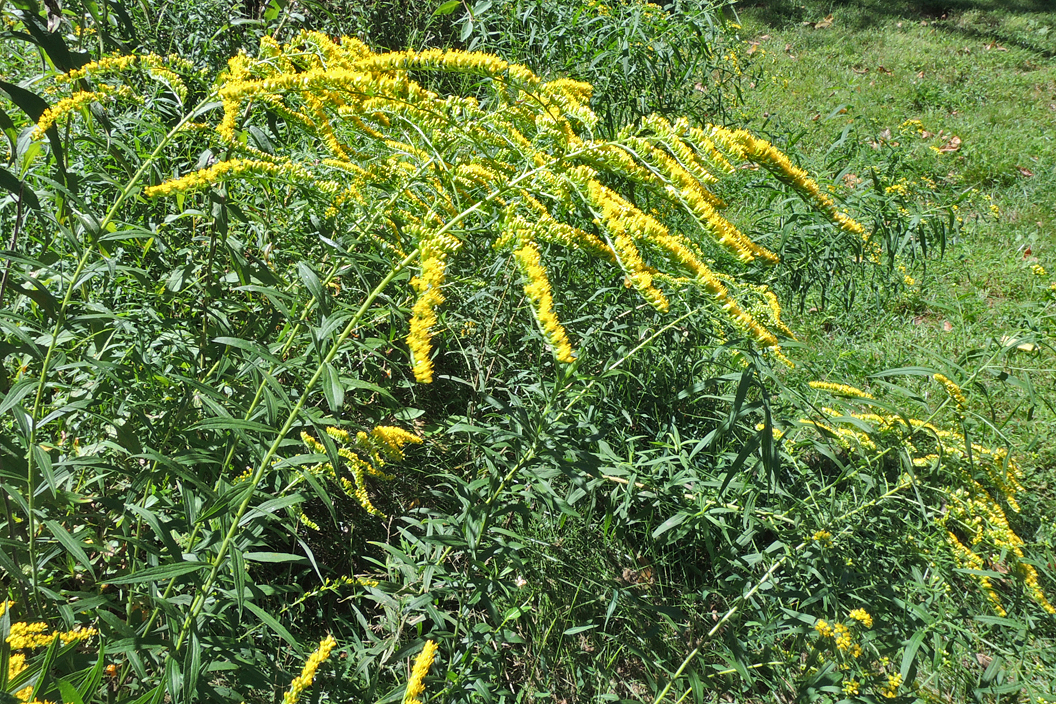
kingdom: Plantae
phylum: Tracheophyta
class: Magnoliopsida
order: Asterales
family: Asteraceae
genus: Solidago
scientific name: Solidago canadensis
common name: Canada goldenrod
